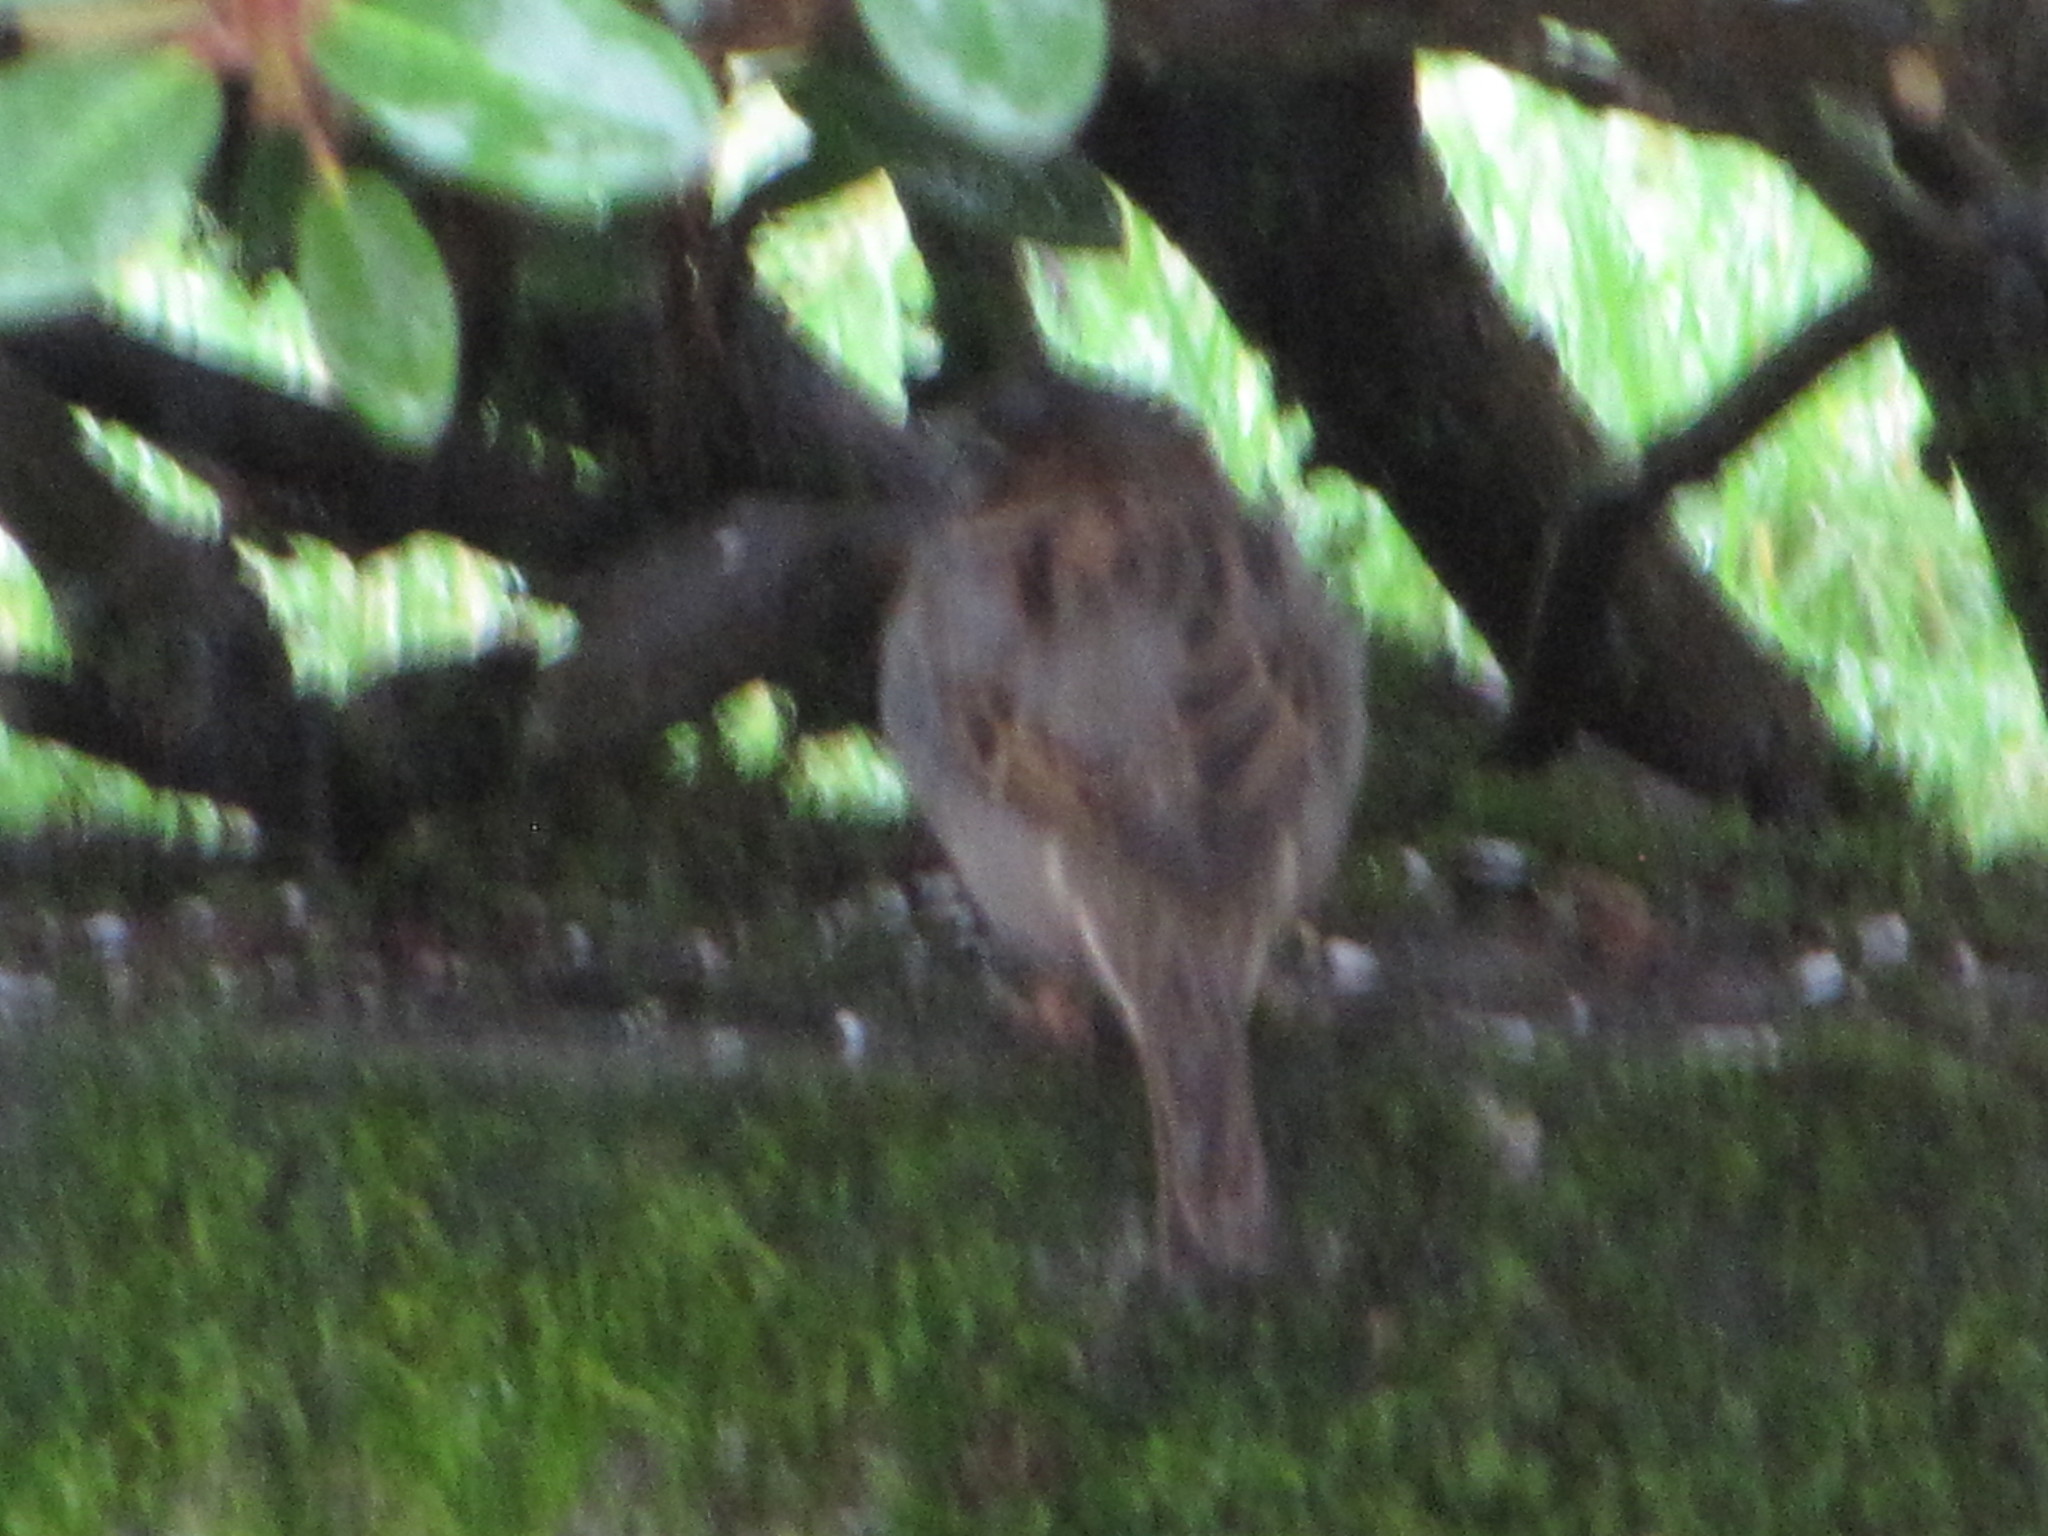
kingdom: Animalia
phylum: Chordata
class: Aves
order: Passeriformes
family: Passeridae
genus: Passer
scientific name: Passer domesticus
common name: House sparrow
